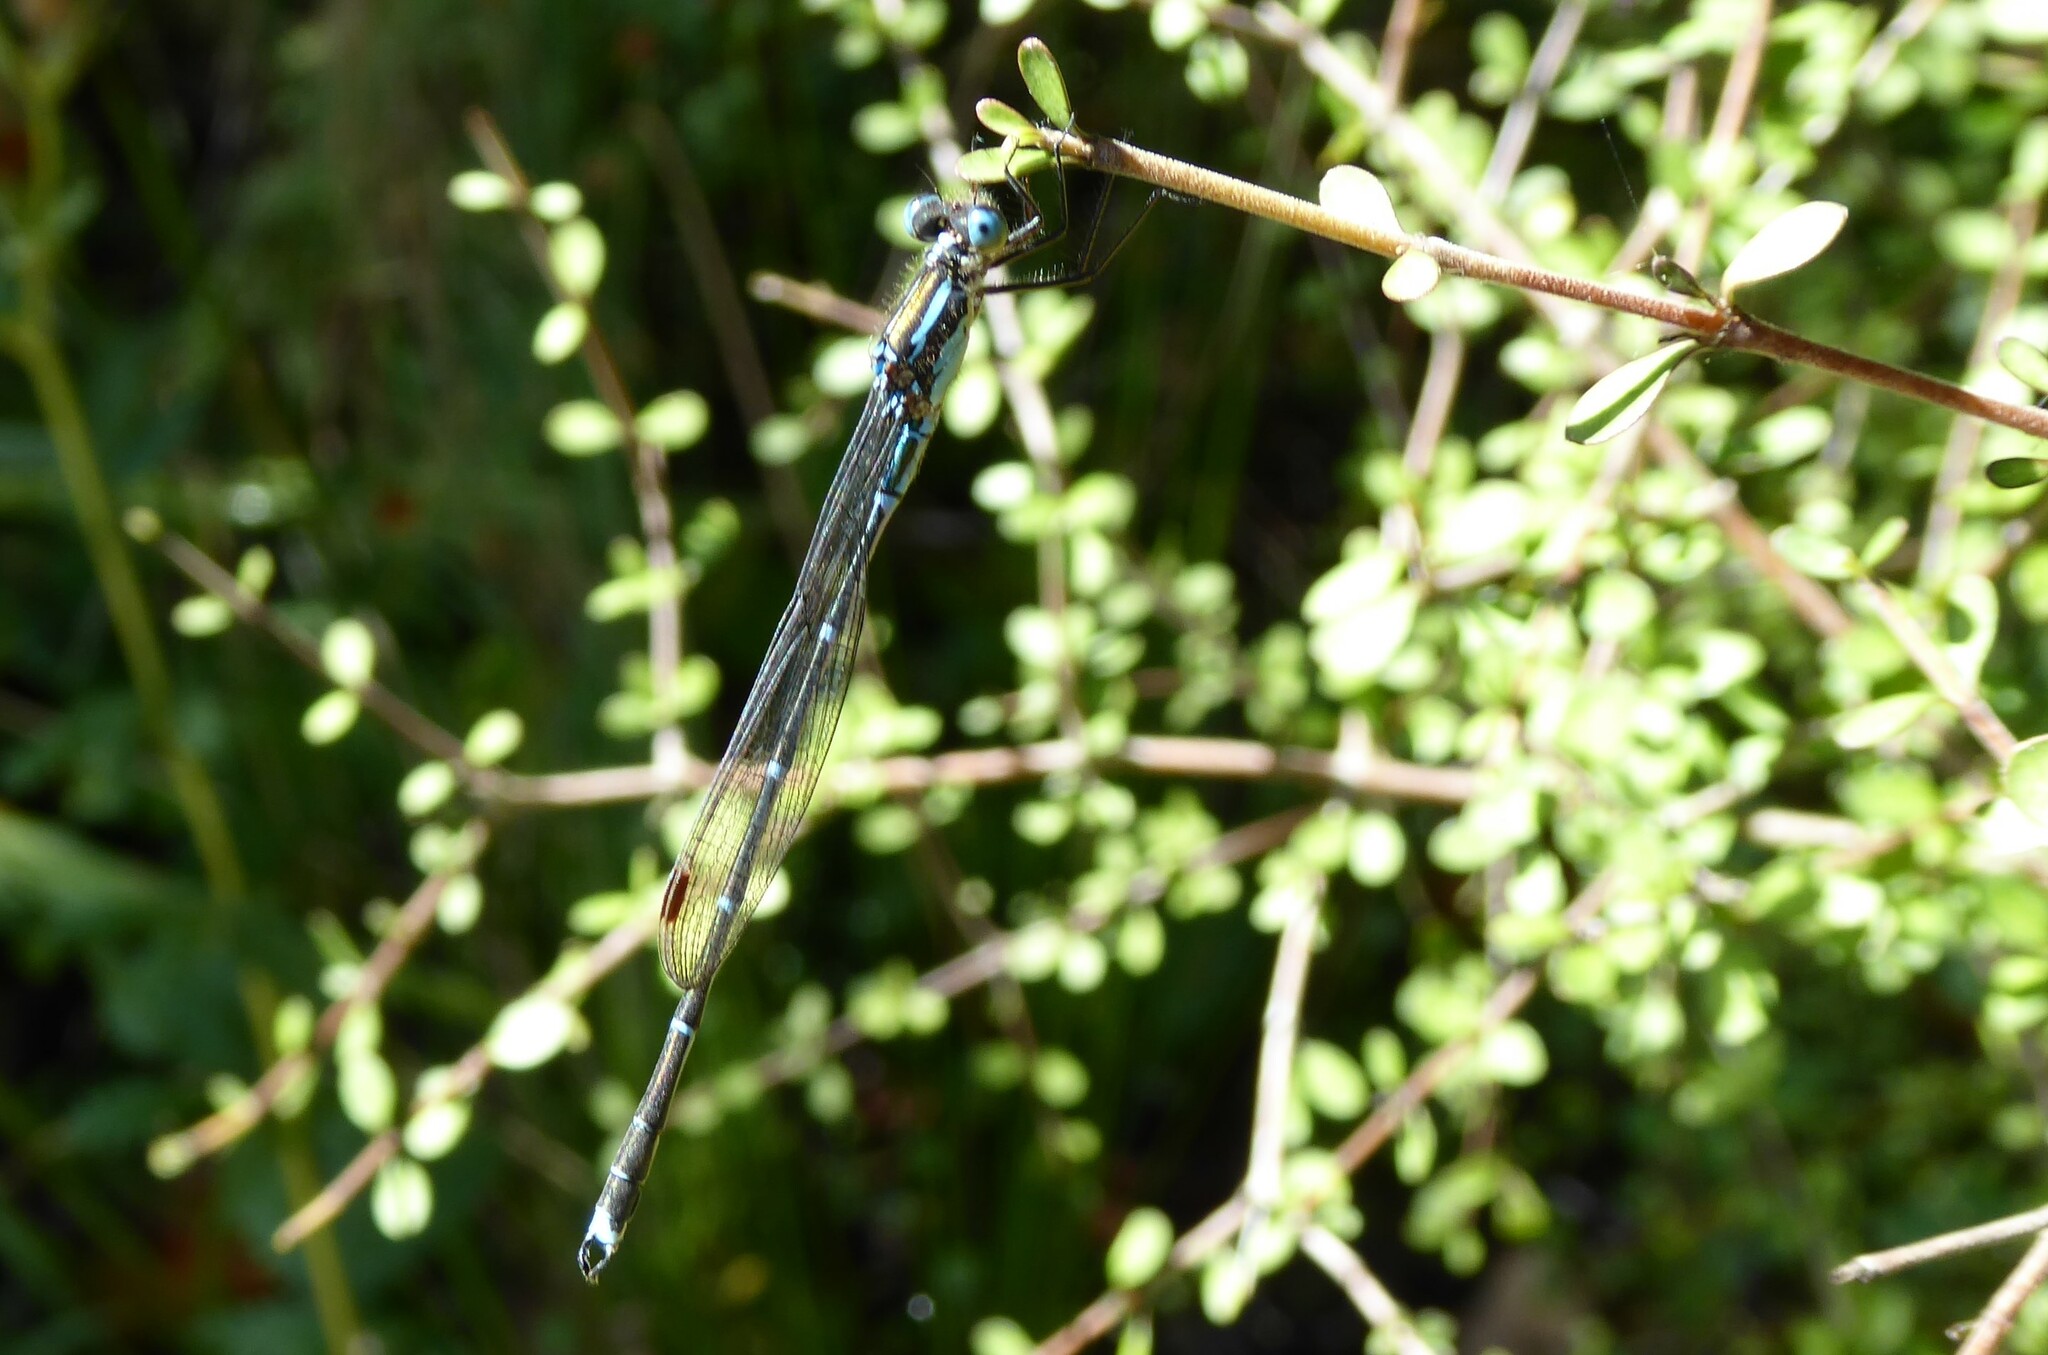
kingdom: Animalia
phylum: Arthropoda
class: Insecta
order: Odonata
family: Lestidae
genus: Austrolestes
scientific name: Austrolestes colensonis
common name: Blue damselfly
